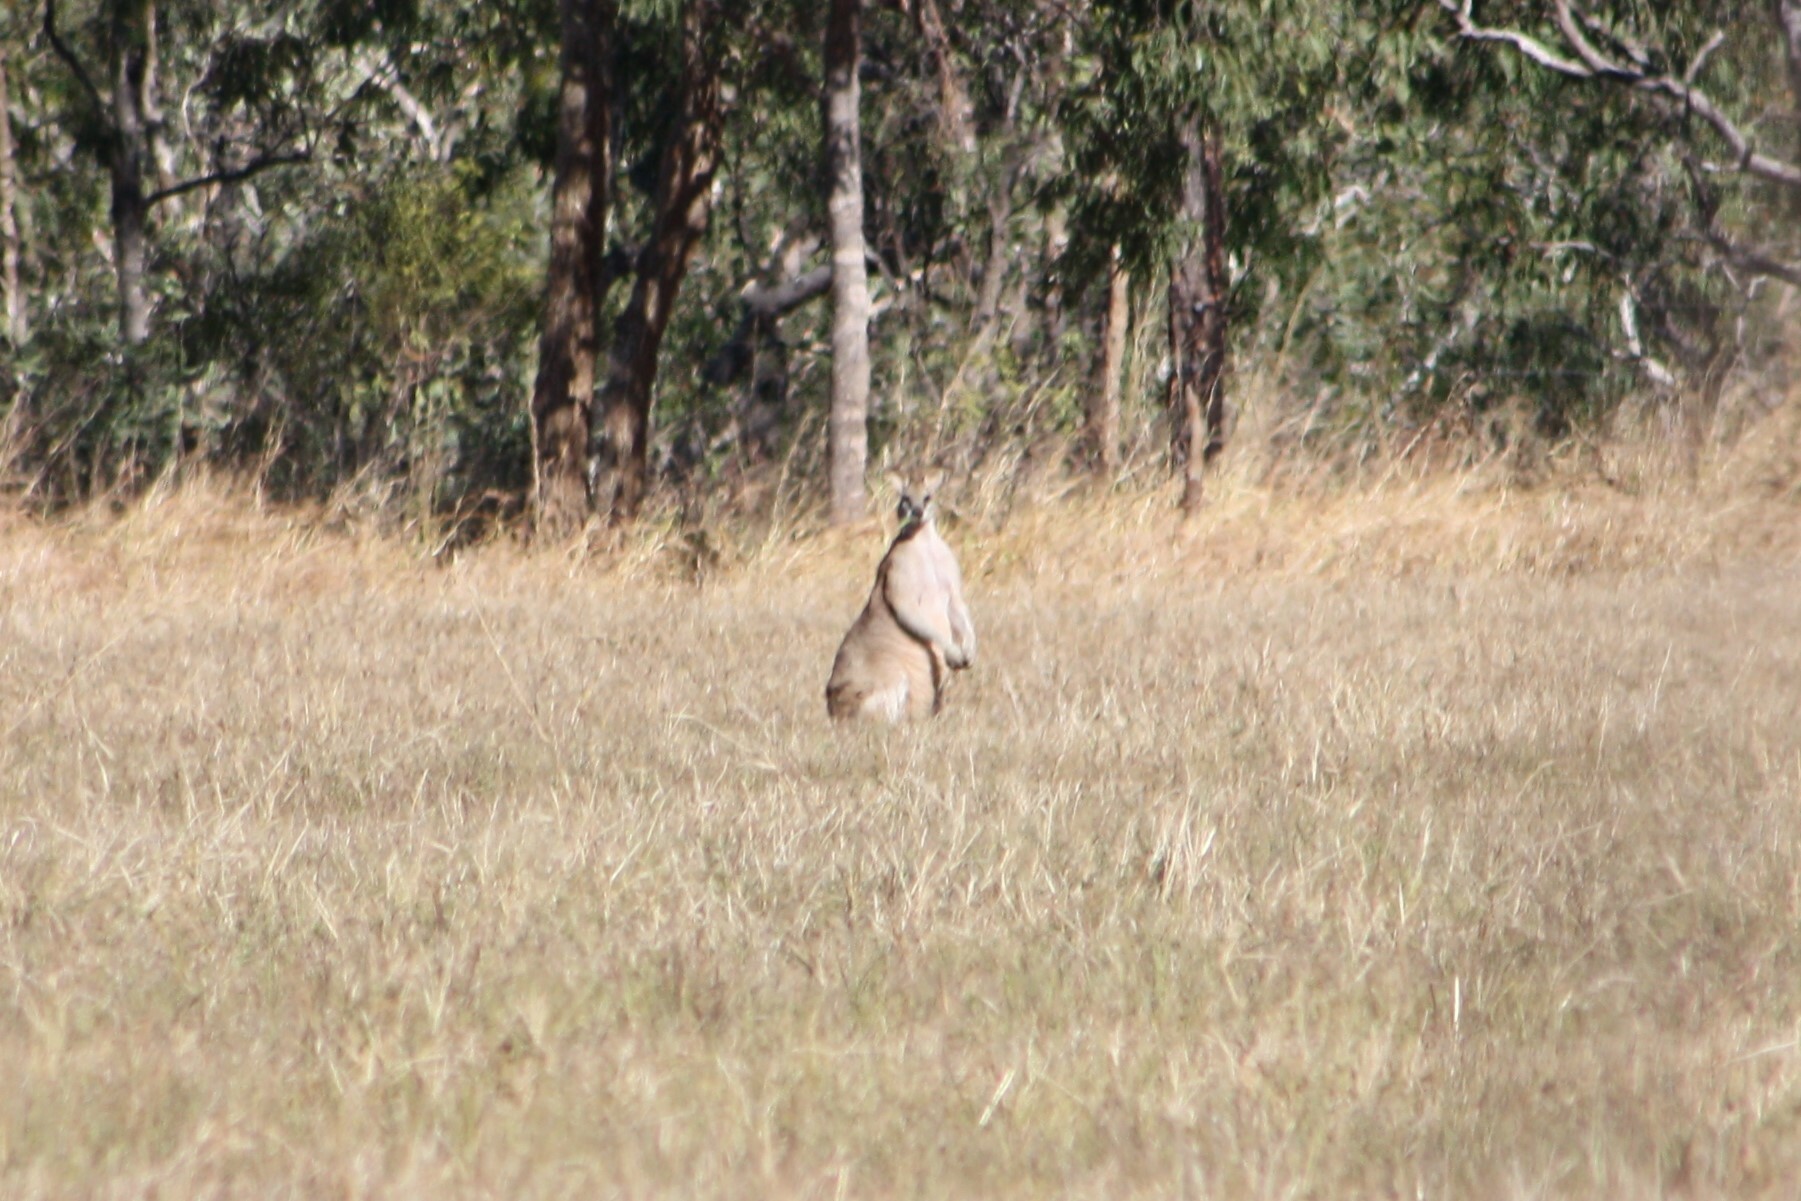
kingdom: Animalia
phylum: Chordata
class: Mammalia
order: Diprotodontia
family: Macropodidae
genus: Macropus
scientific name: Macropus agilis
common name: Agile wallaby
